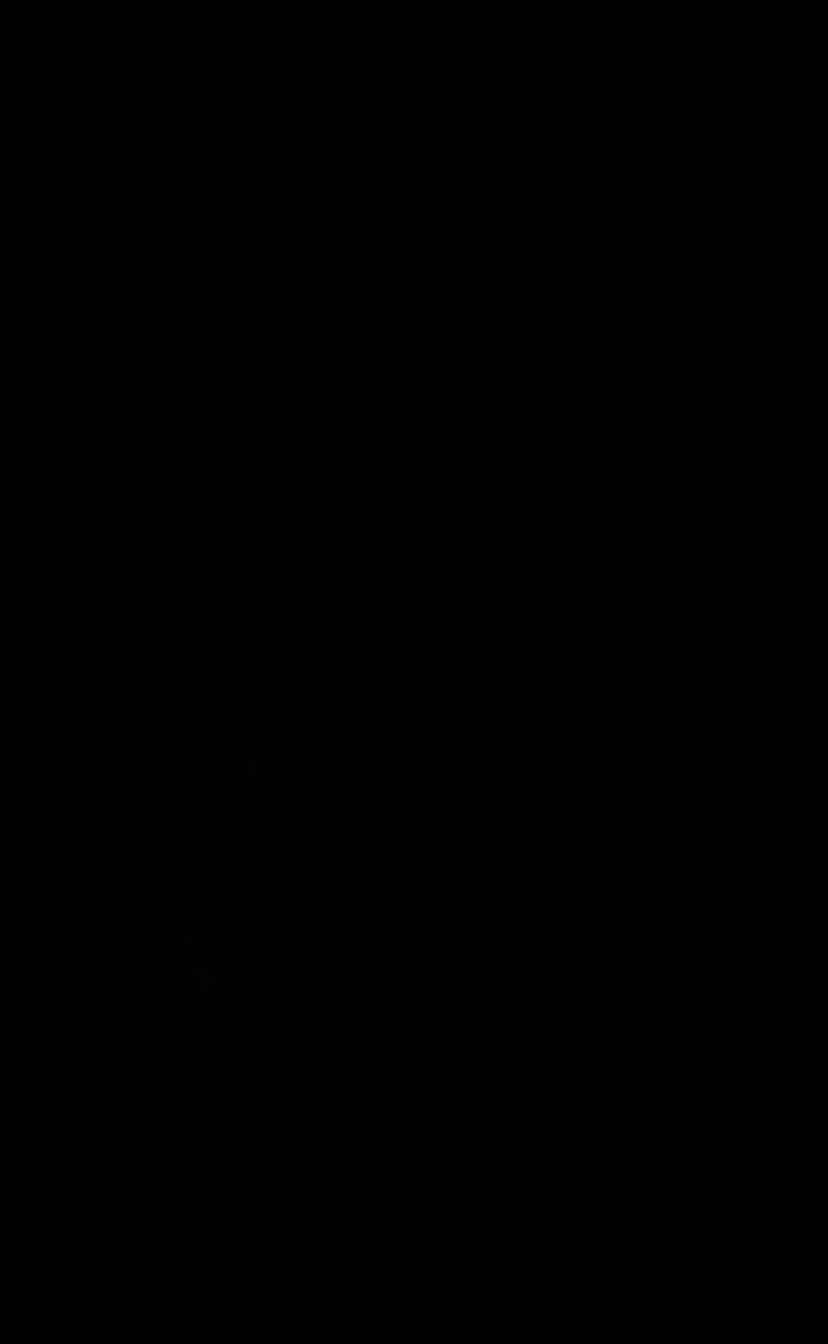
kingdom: Animalia
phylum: Chordata
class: Aves
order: Strigiformes
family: Strigidae
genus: Ninox
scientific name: Ninox novaeseelandiae
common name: Morepork
